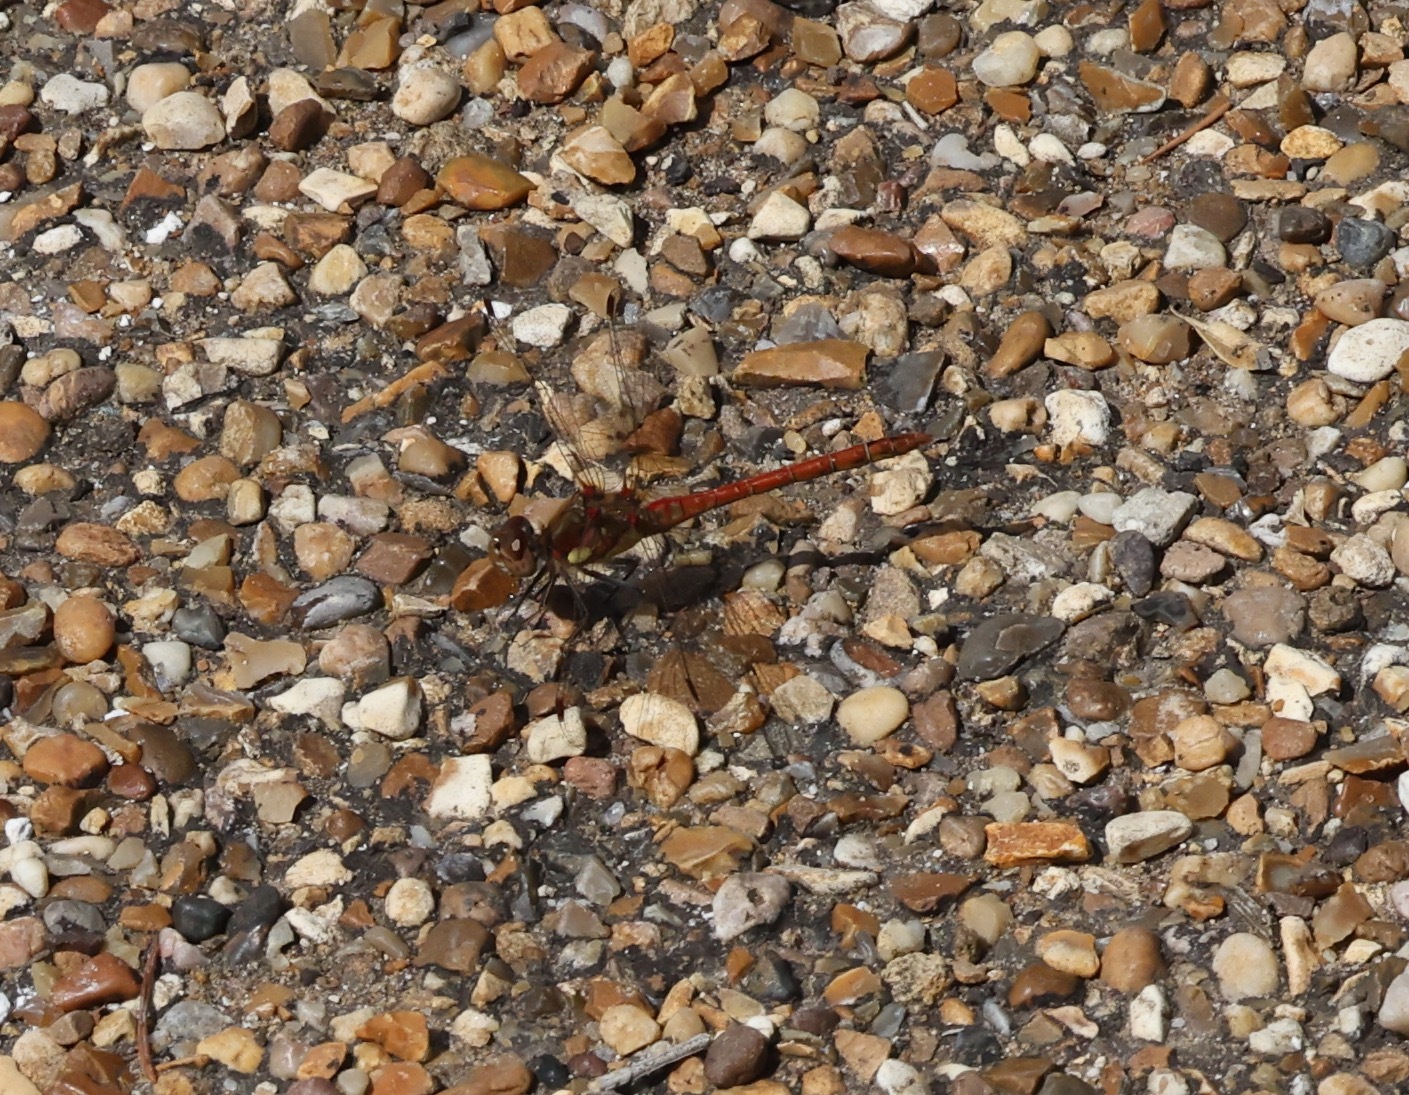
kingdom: Animalia
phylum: Arthropoda
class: Insecta
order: Odonata
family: Libellulidae
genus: Sympetrum
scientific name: Sympetrum striolatum
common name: Common darter
